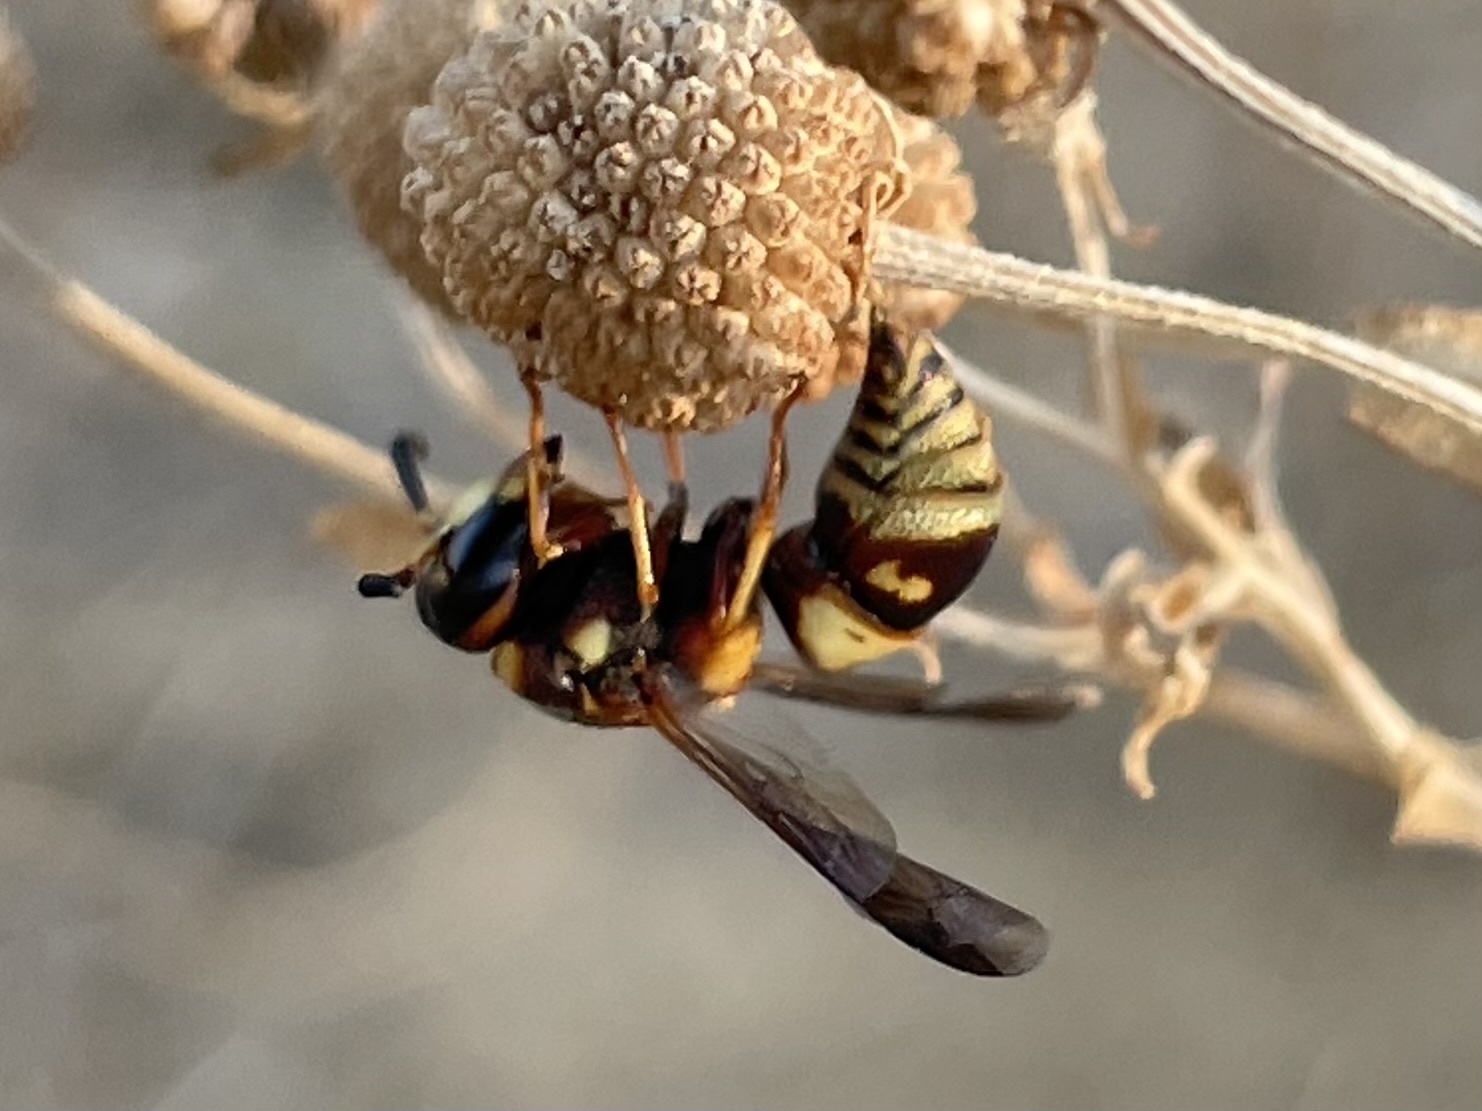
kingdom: Animalia
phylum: Arthropoda
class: Insecta
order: Hymenoptera
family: Eumenidae
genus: Euodynerus
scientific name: Euodynerus hidalgo
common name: Wasp
